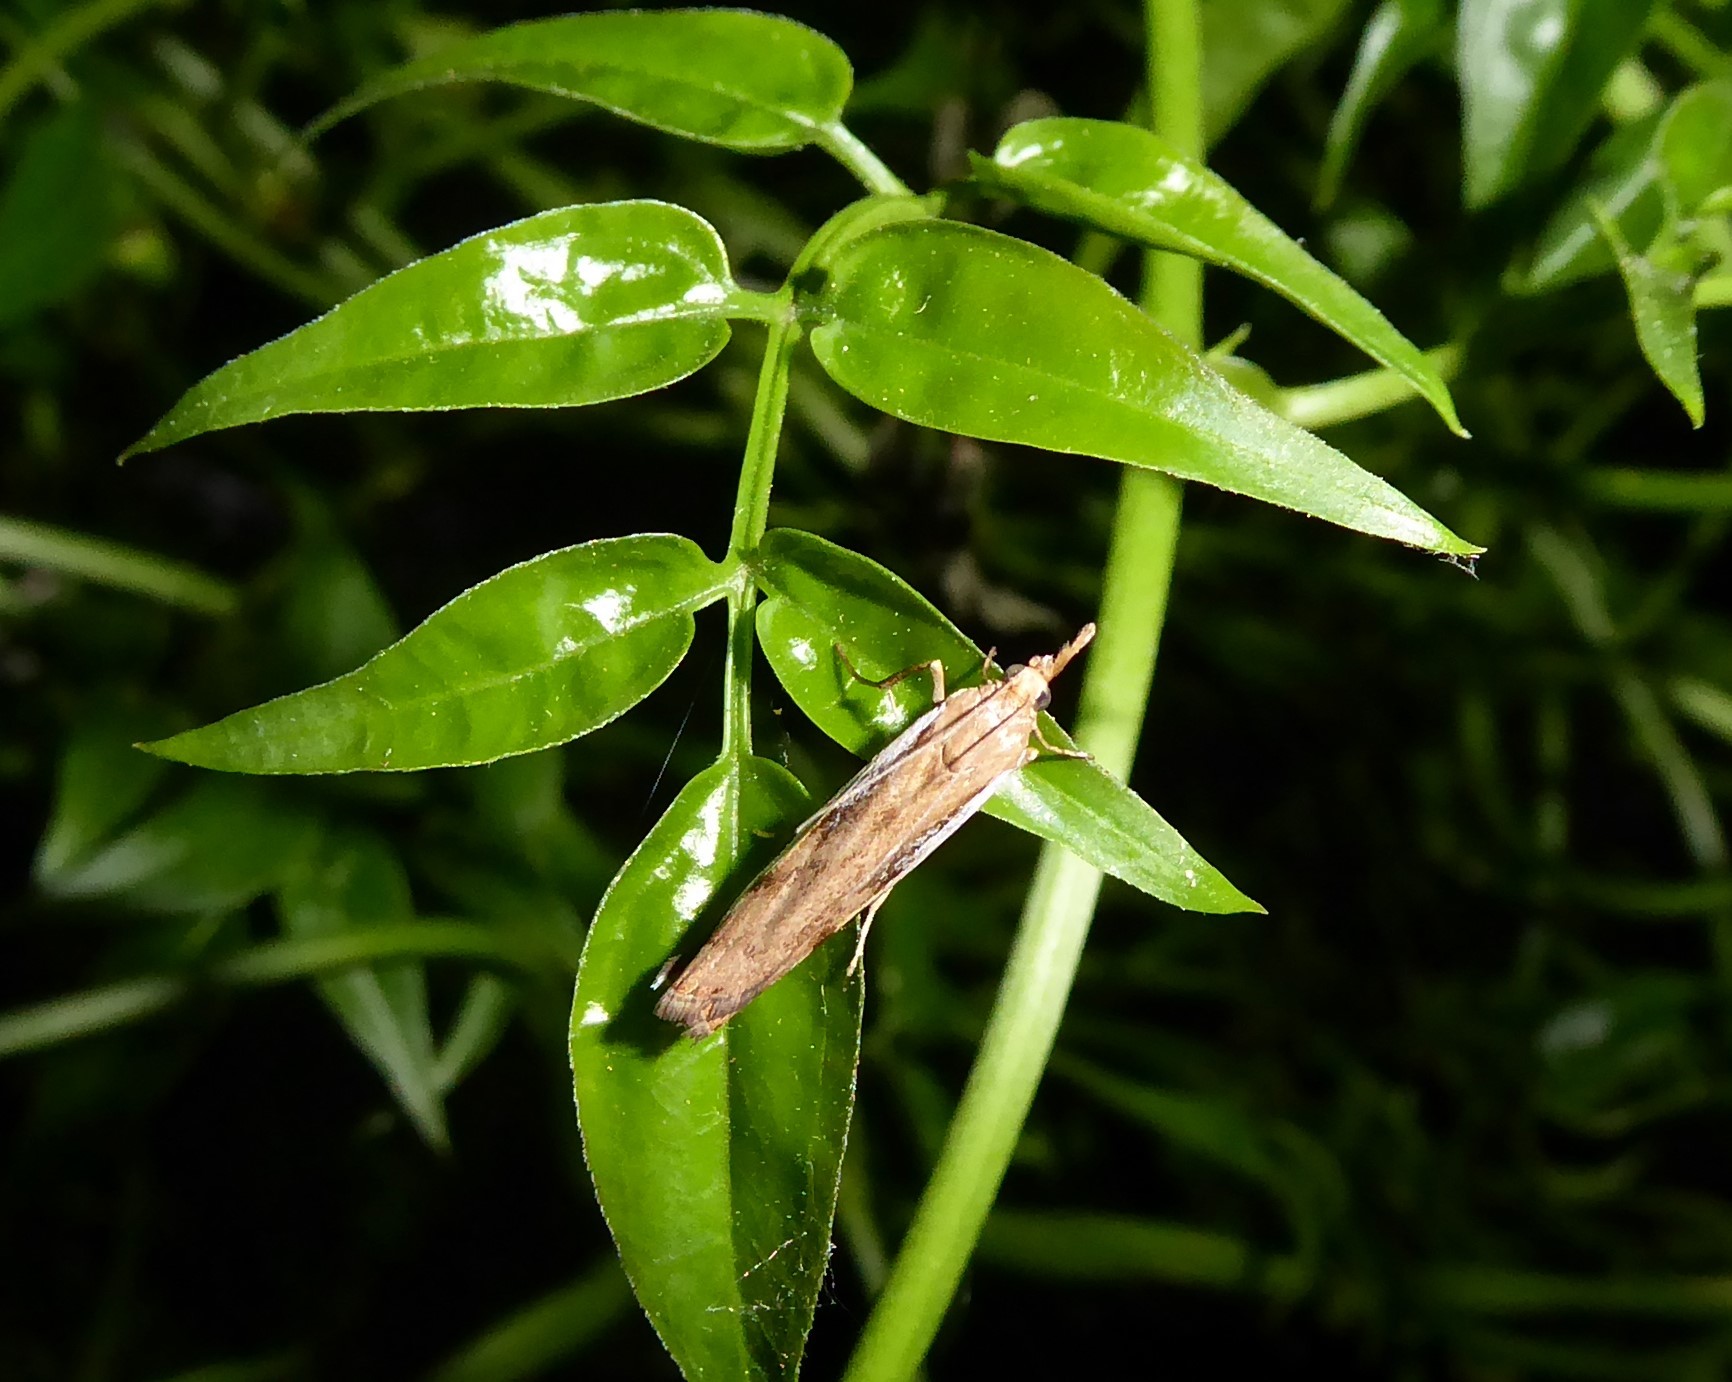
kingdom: Animalia
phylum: Arthropoda
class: Insecta
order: Lepidoptera
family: Crambidae
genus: Orocrambus
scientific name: Orocrambus flexuosellus
